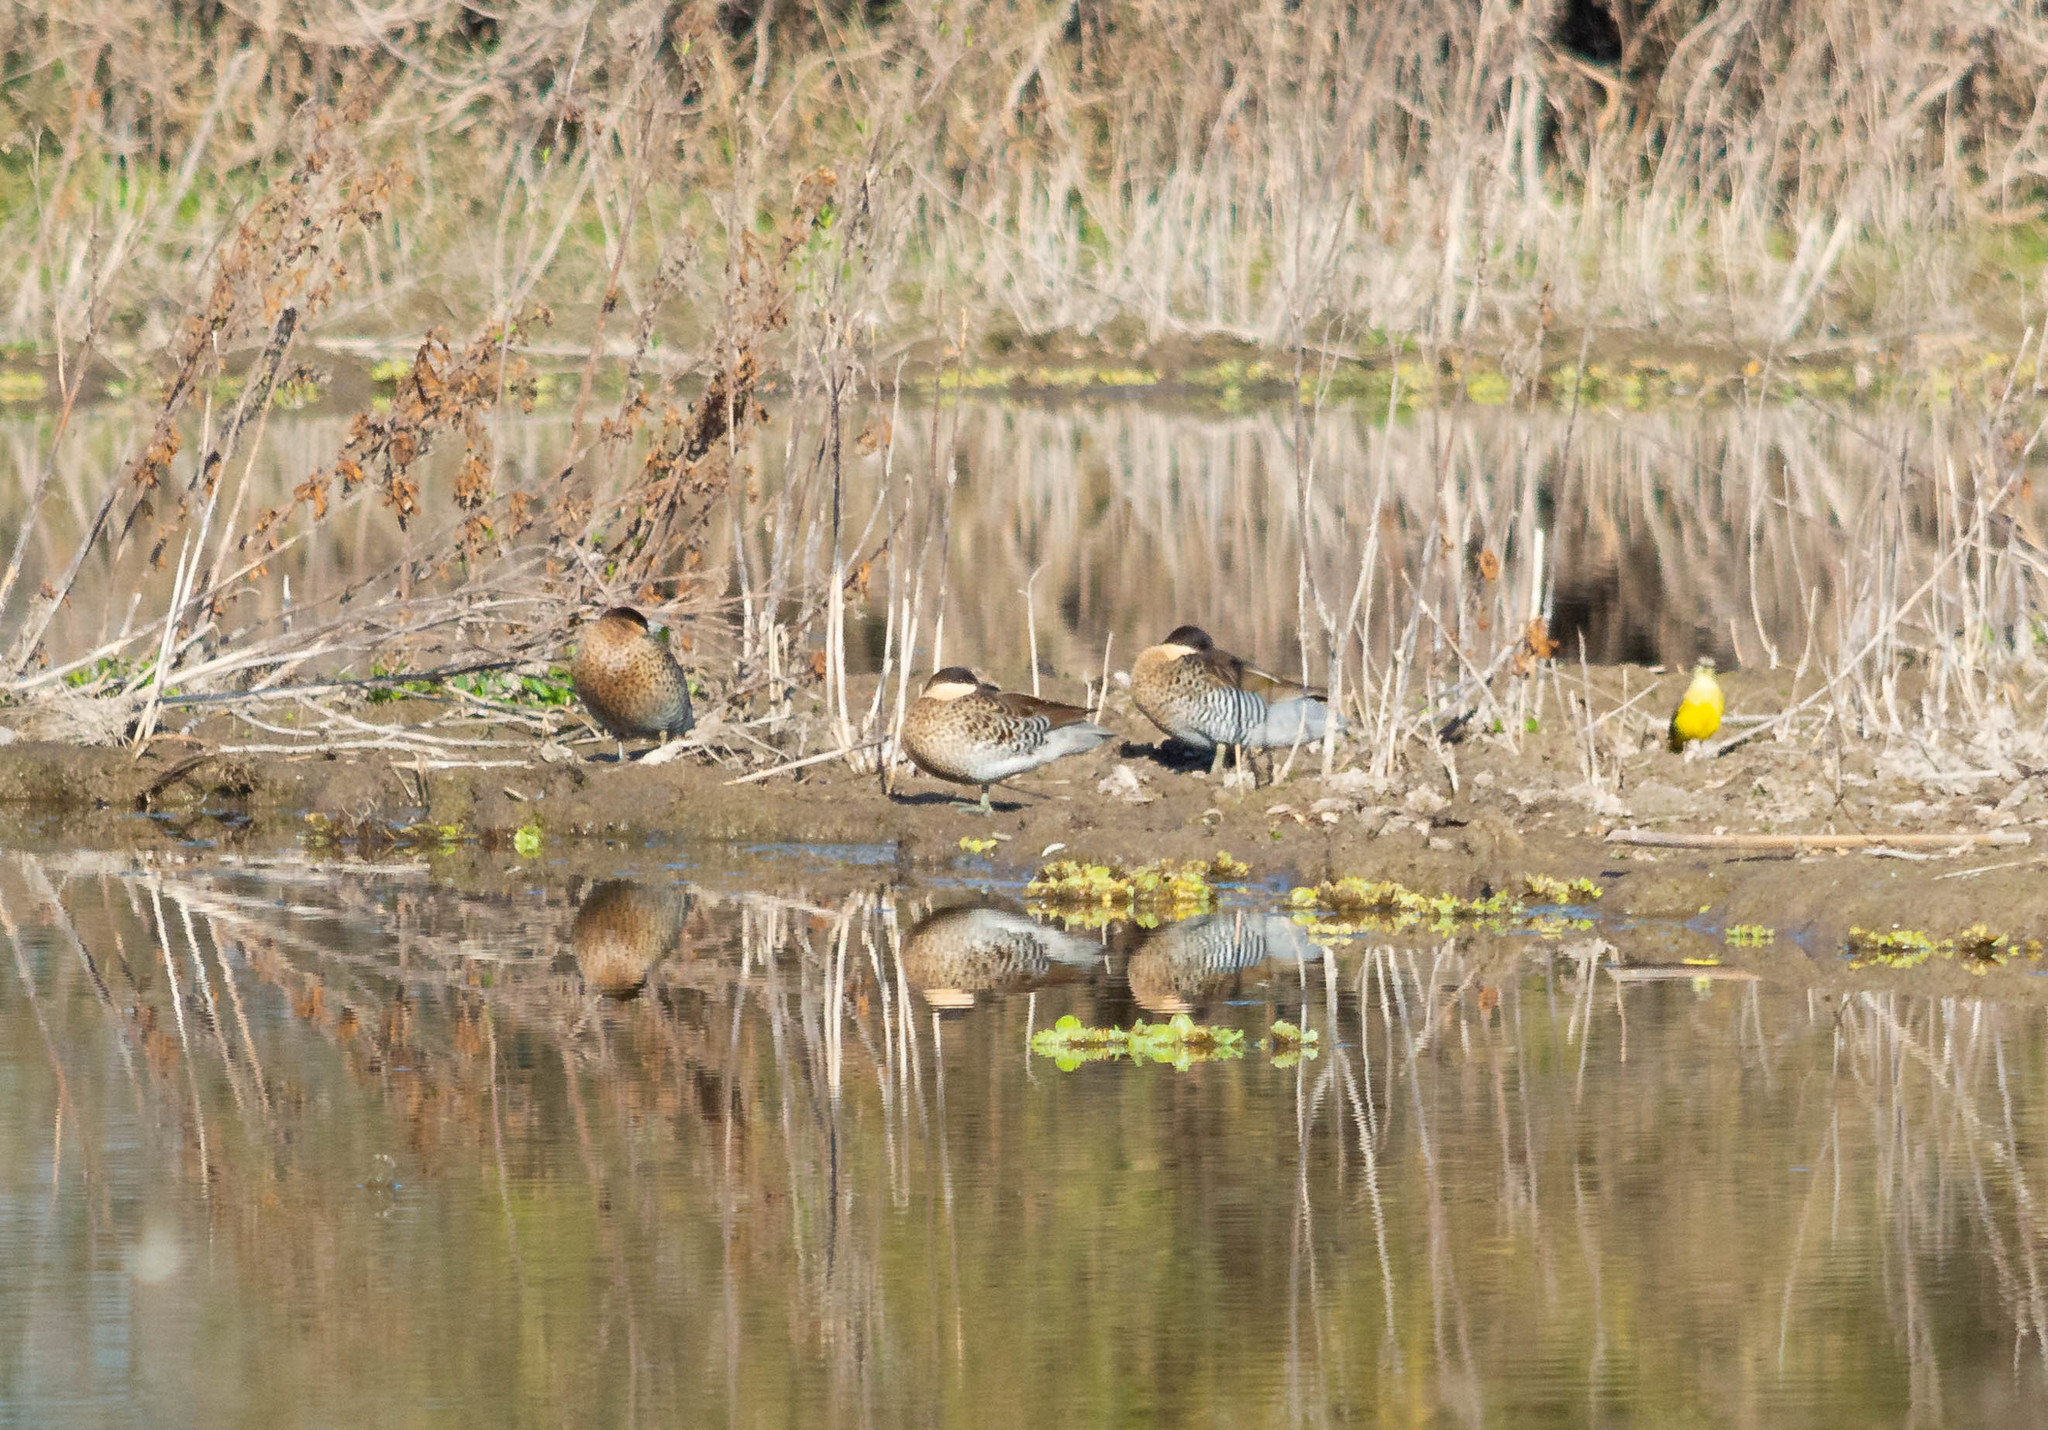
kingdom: Animalia
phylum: Chordata
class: Aves
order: Anseriformes
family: Anatidae
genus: Spatula
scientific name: Spatula versicolor
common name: Silver teal
